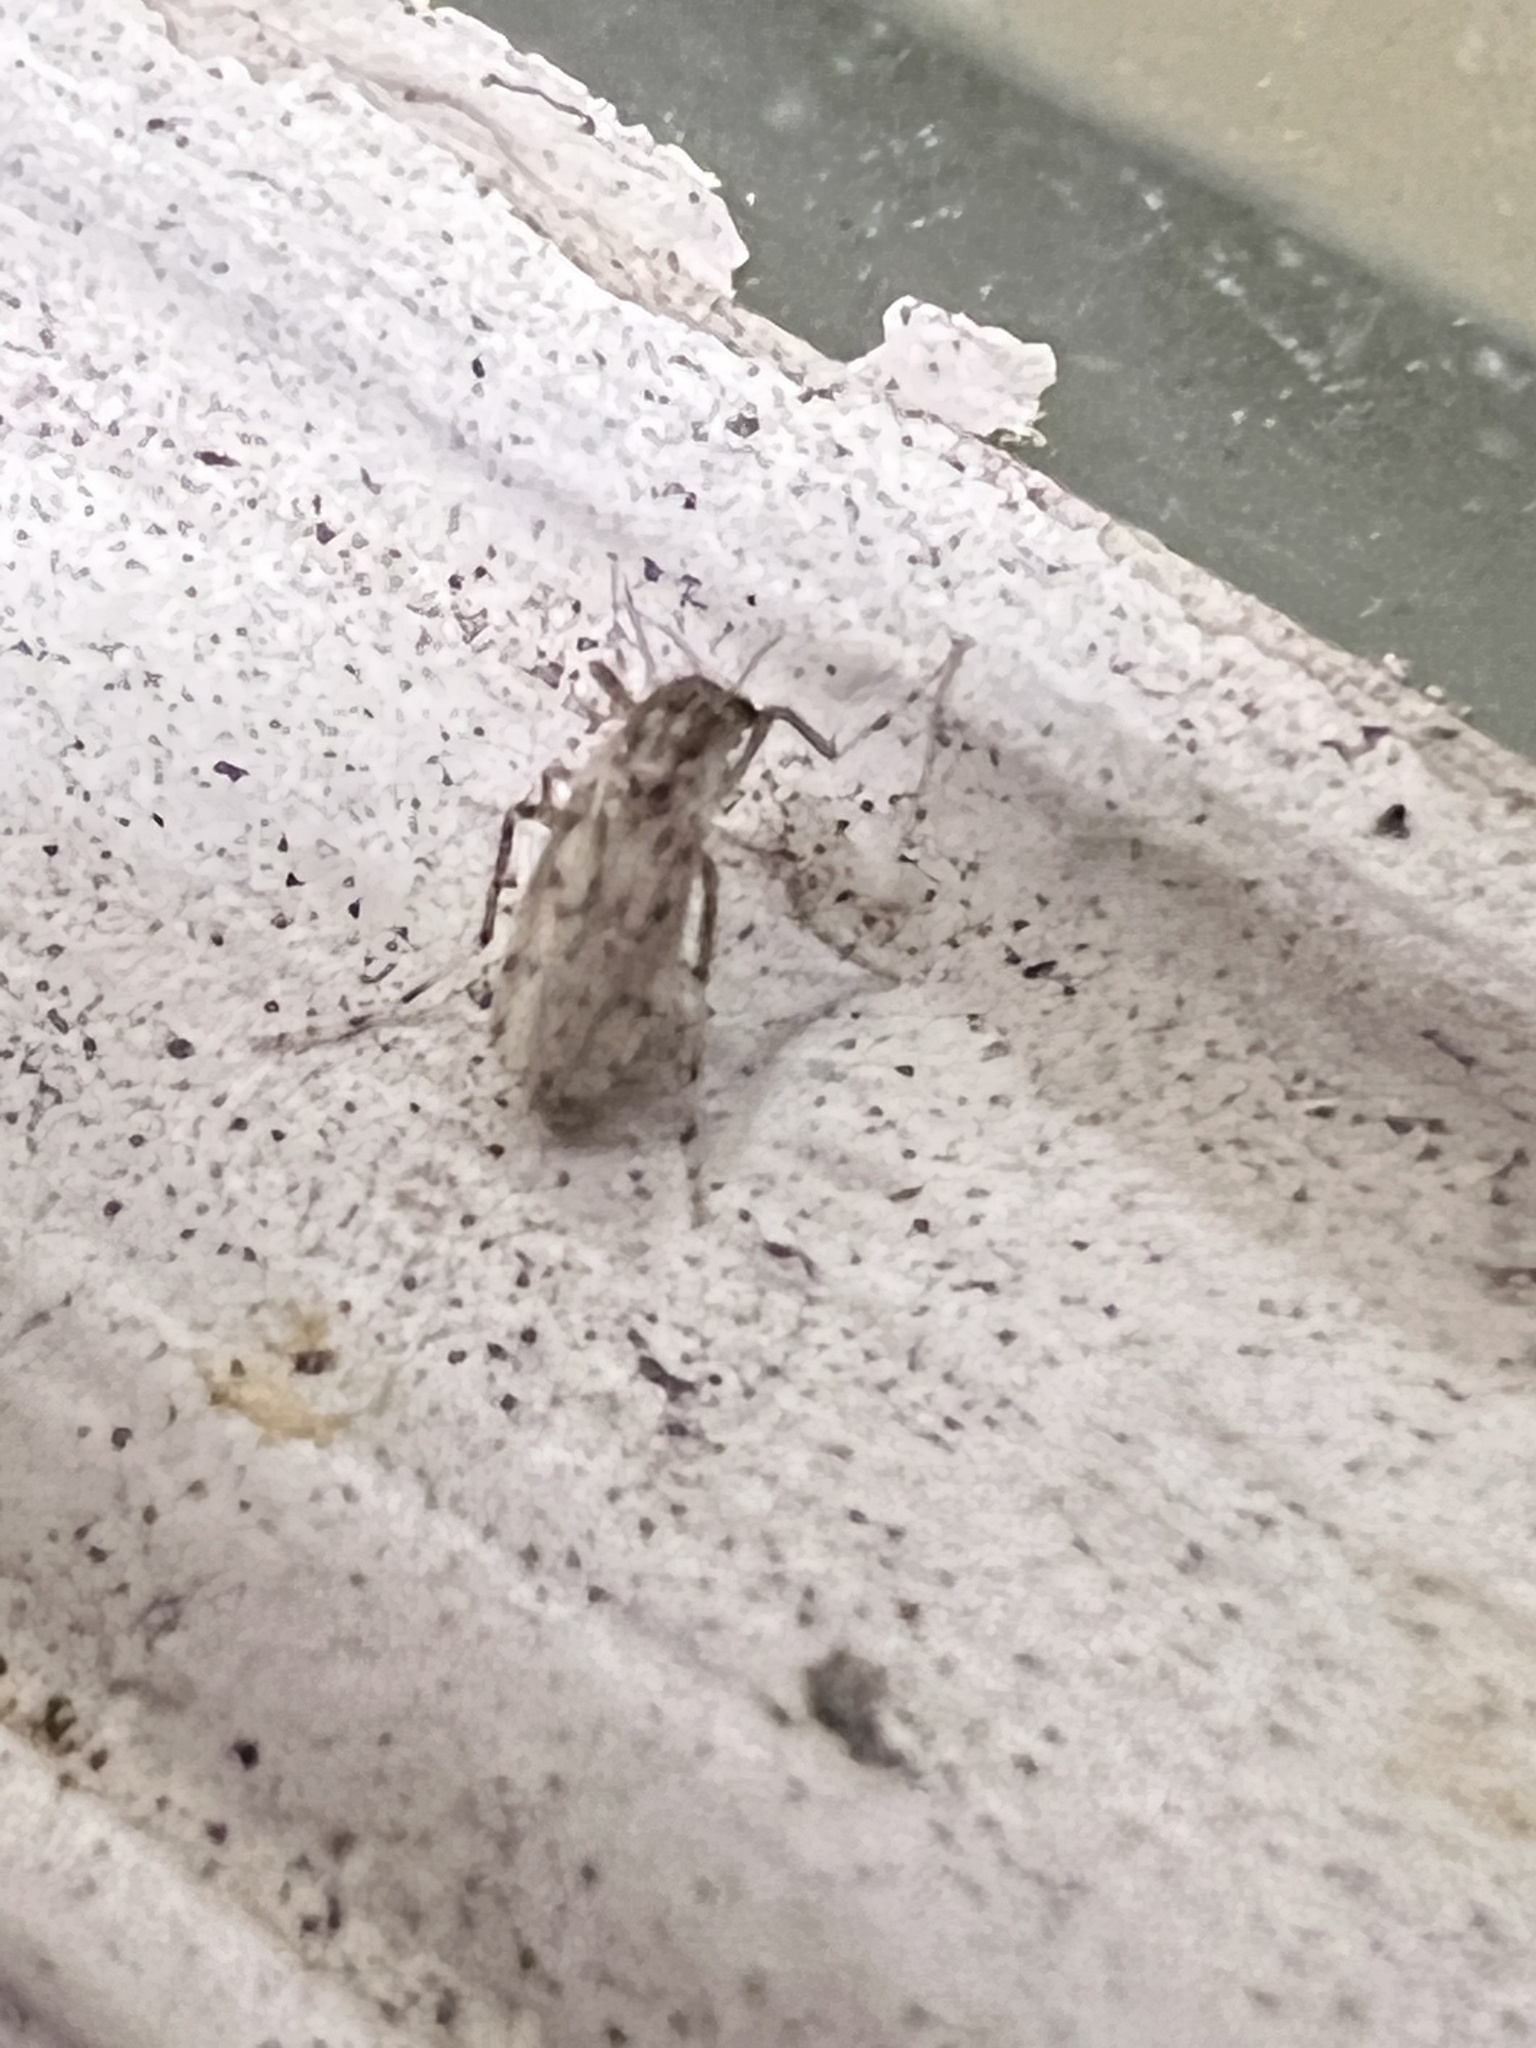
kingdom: Animalia
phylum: Arthropoda
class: Insecta
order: Diptera
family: Chaoboridae
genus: Chaoborus
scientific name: Chaoborus punctipennis
